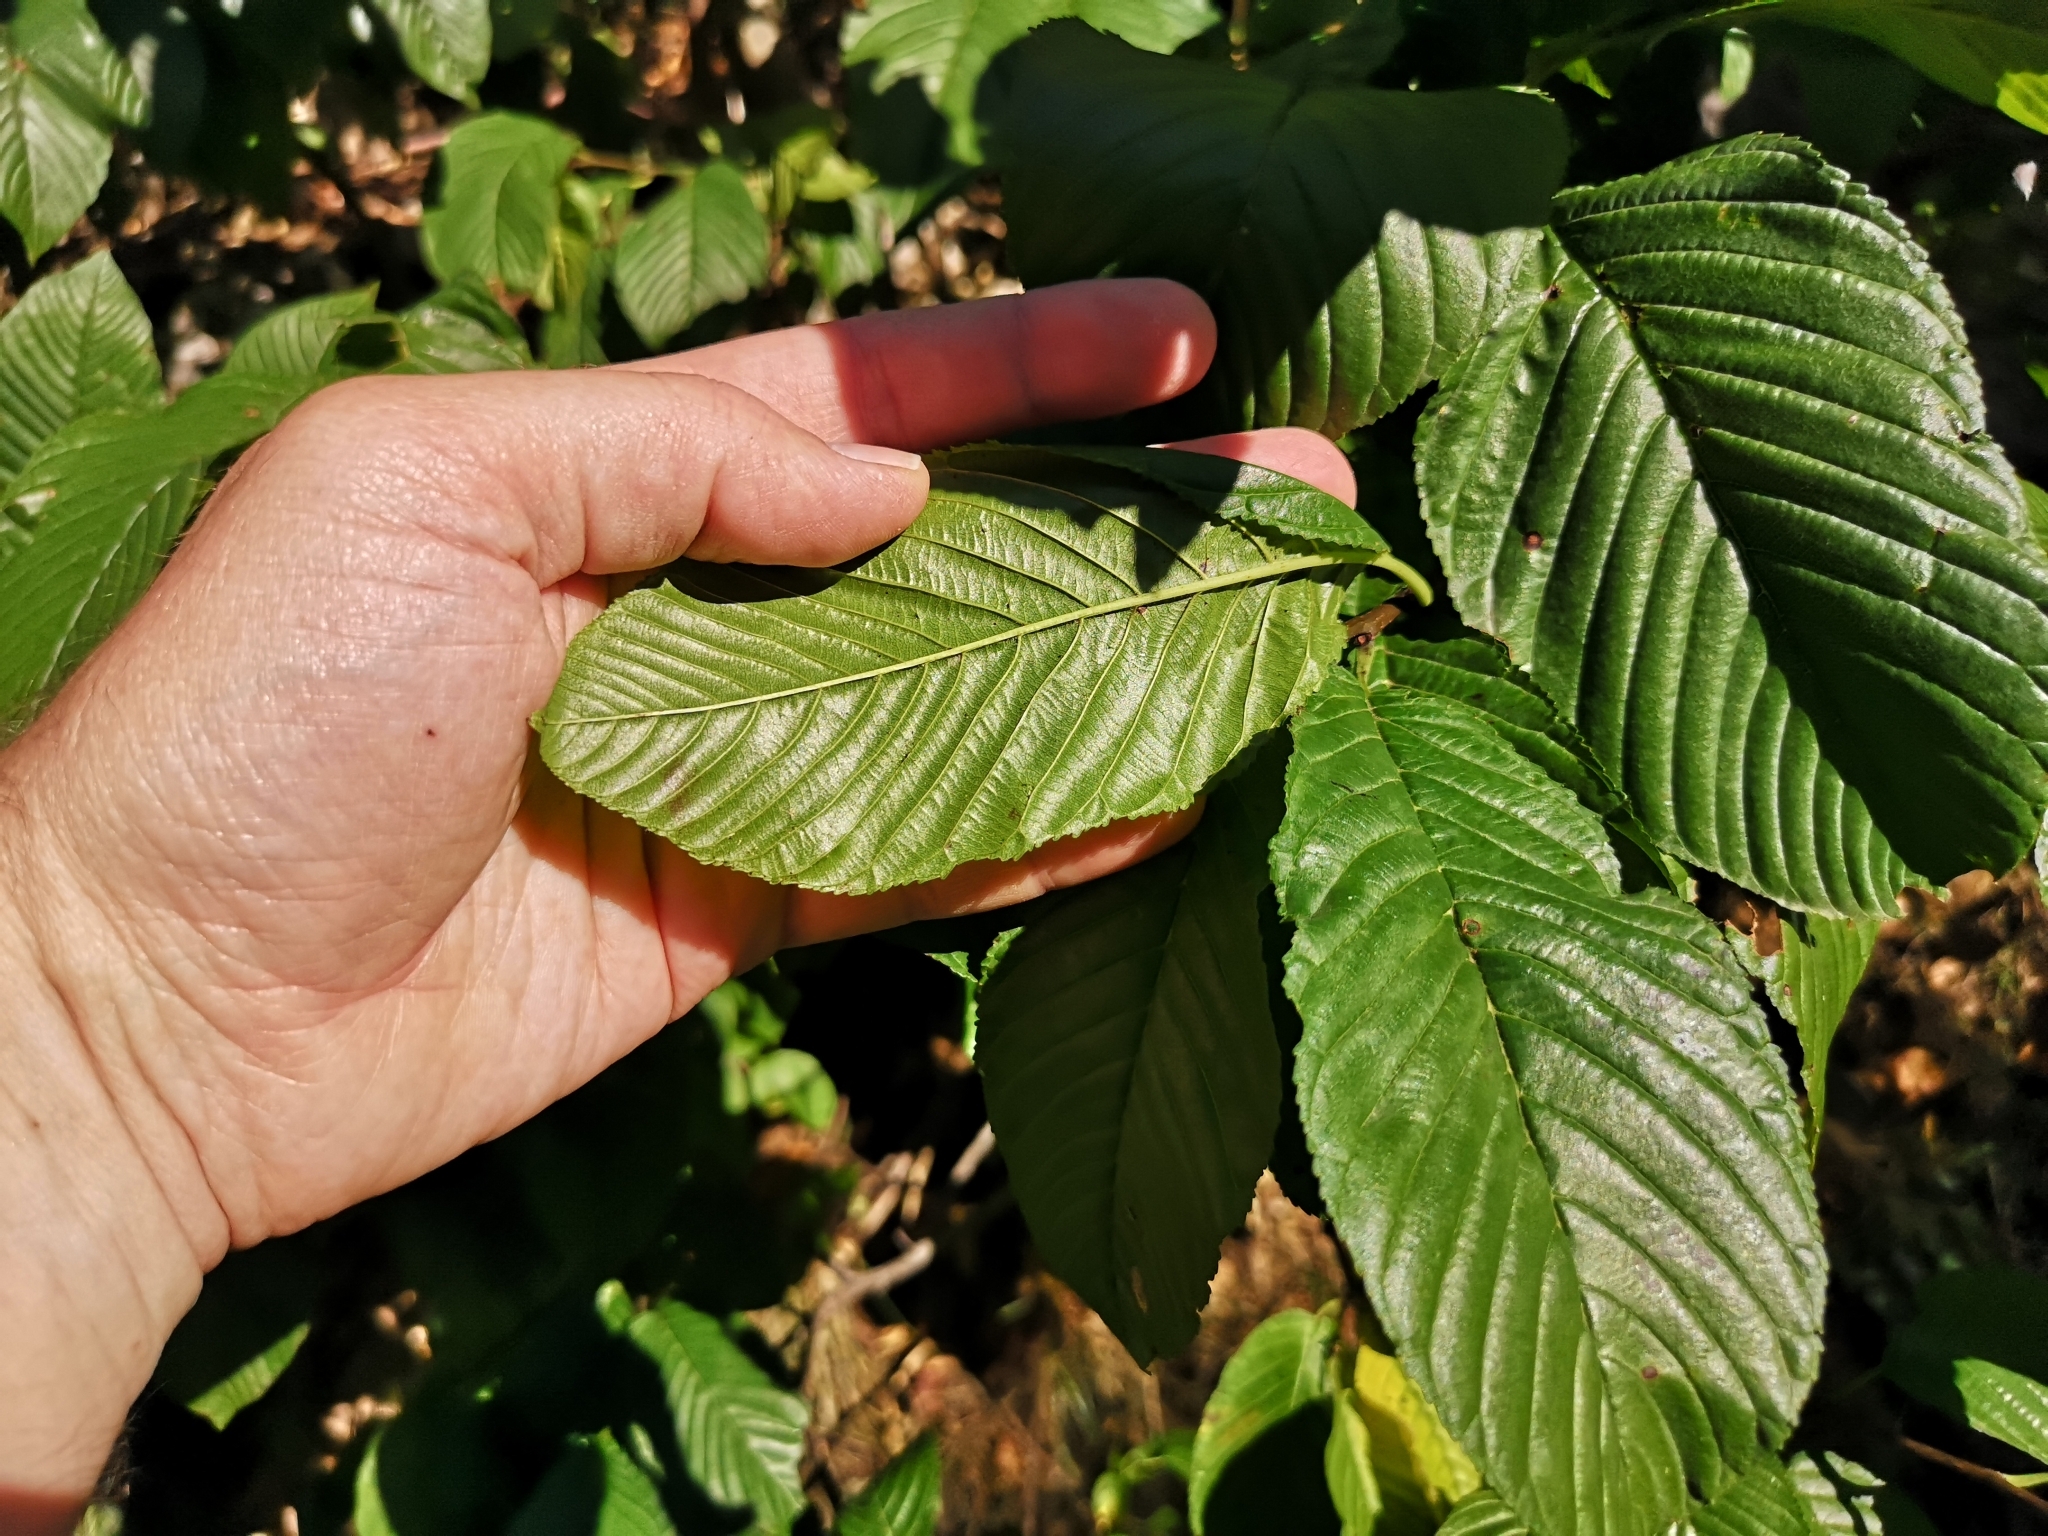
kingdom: Plantae
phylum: Tracheophyta
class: Magnoliopsida
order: Rosales
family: Rhamnaceae
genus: Atadinus
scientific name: Atadinus fallax
